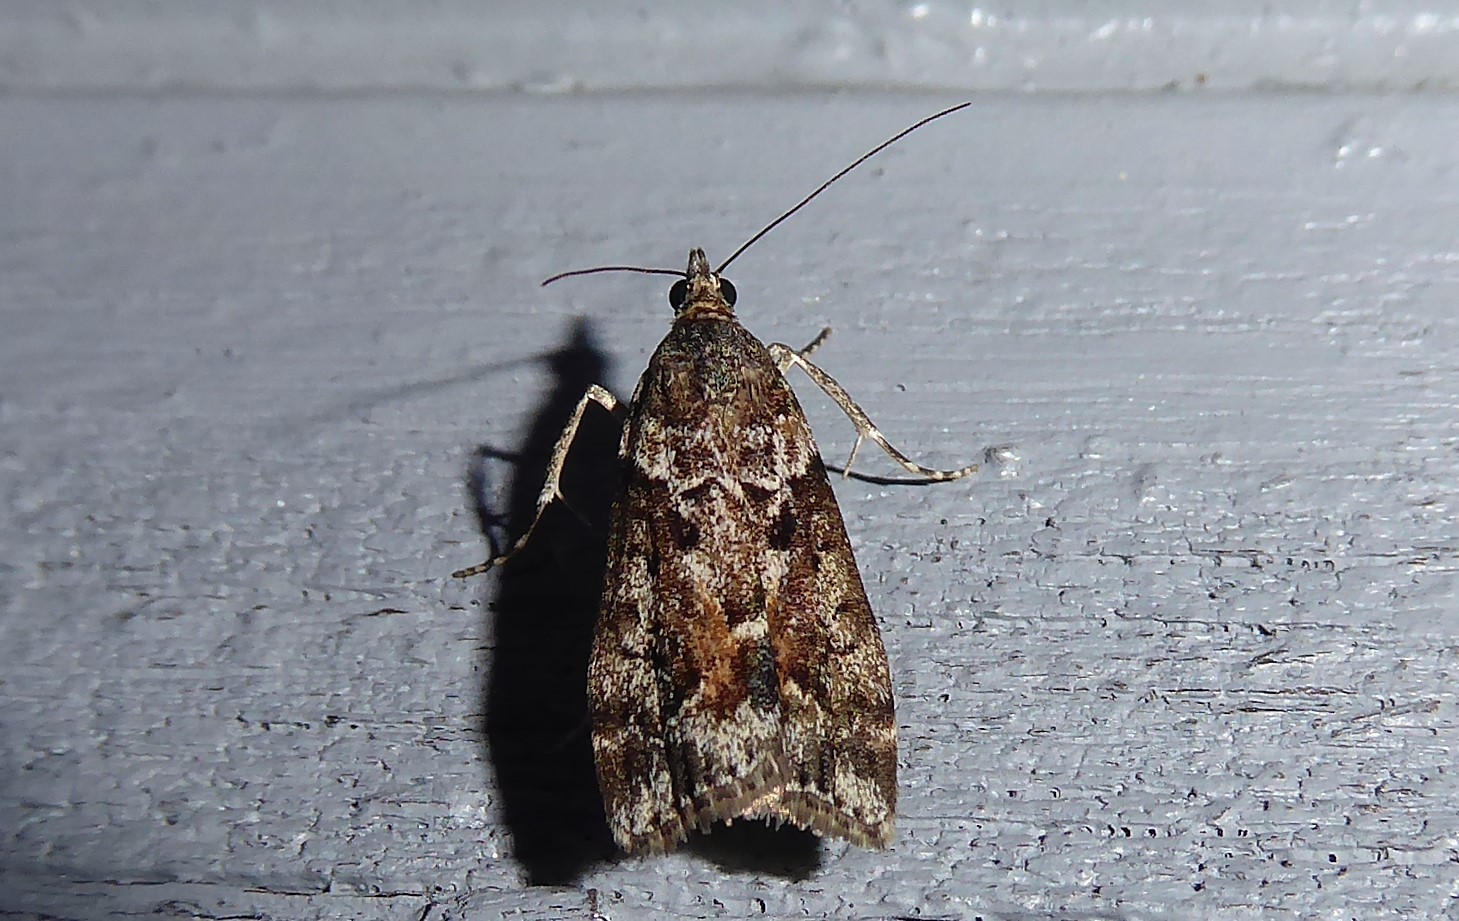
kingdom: Animalia
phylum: Arthropoda
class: Insecta
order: Lepidoptera
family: Crambidae
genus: Eudonia
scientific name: Eudonia submarginalis
